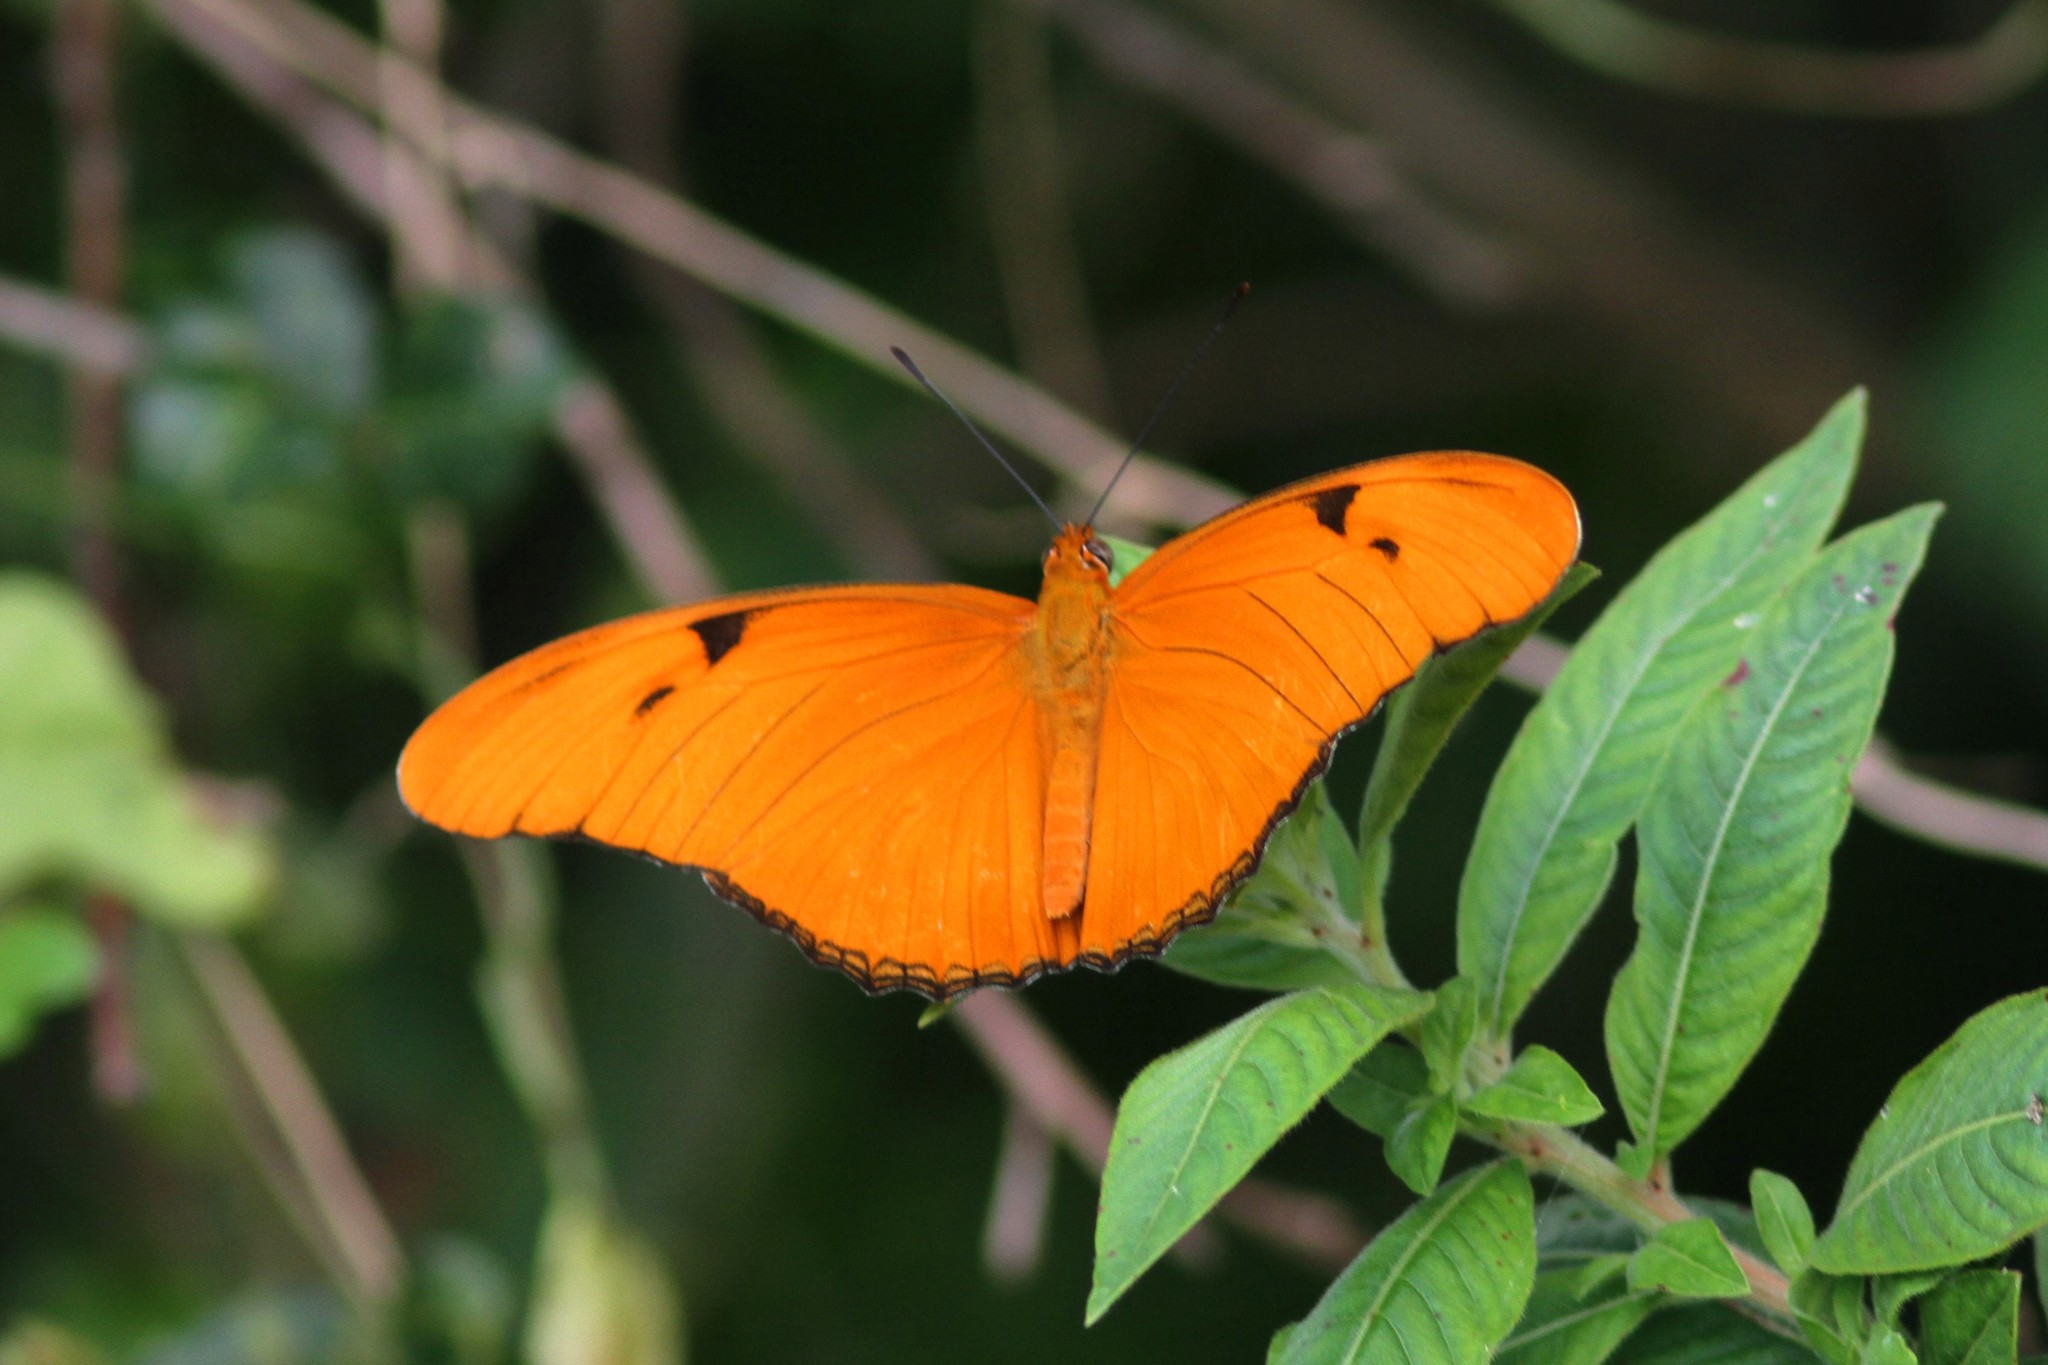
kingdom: Animalia
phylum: Arthropoda
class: Insecta
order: Lepidoptera
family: Nymphalidae
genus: Dryas
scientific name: Dryas iulia
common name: Flambeau
